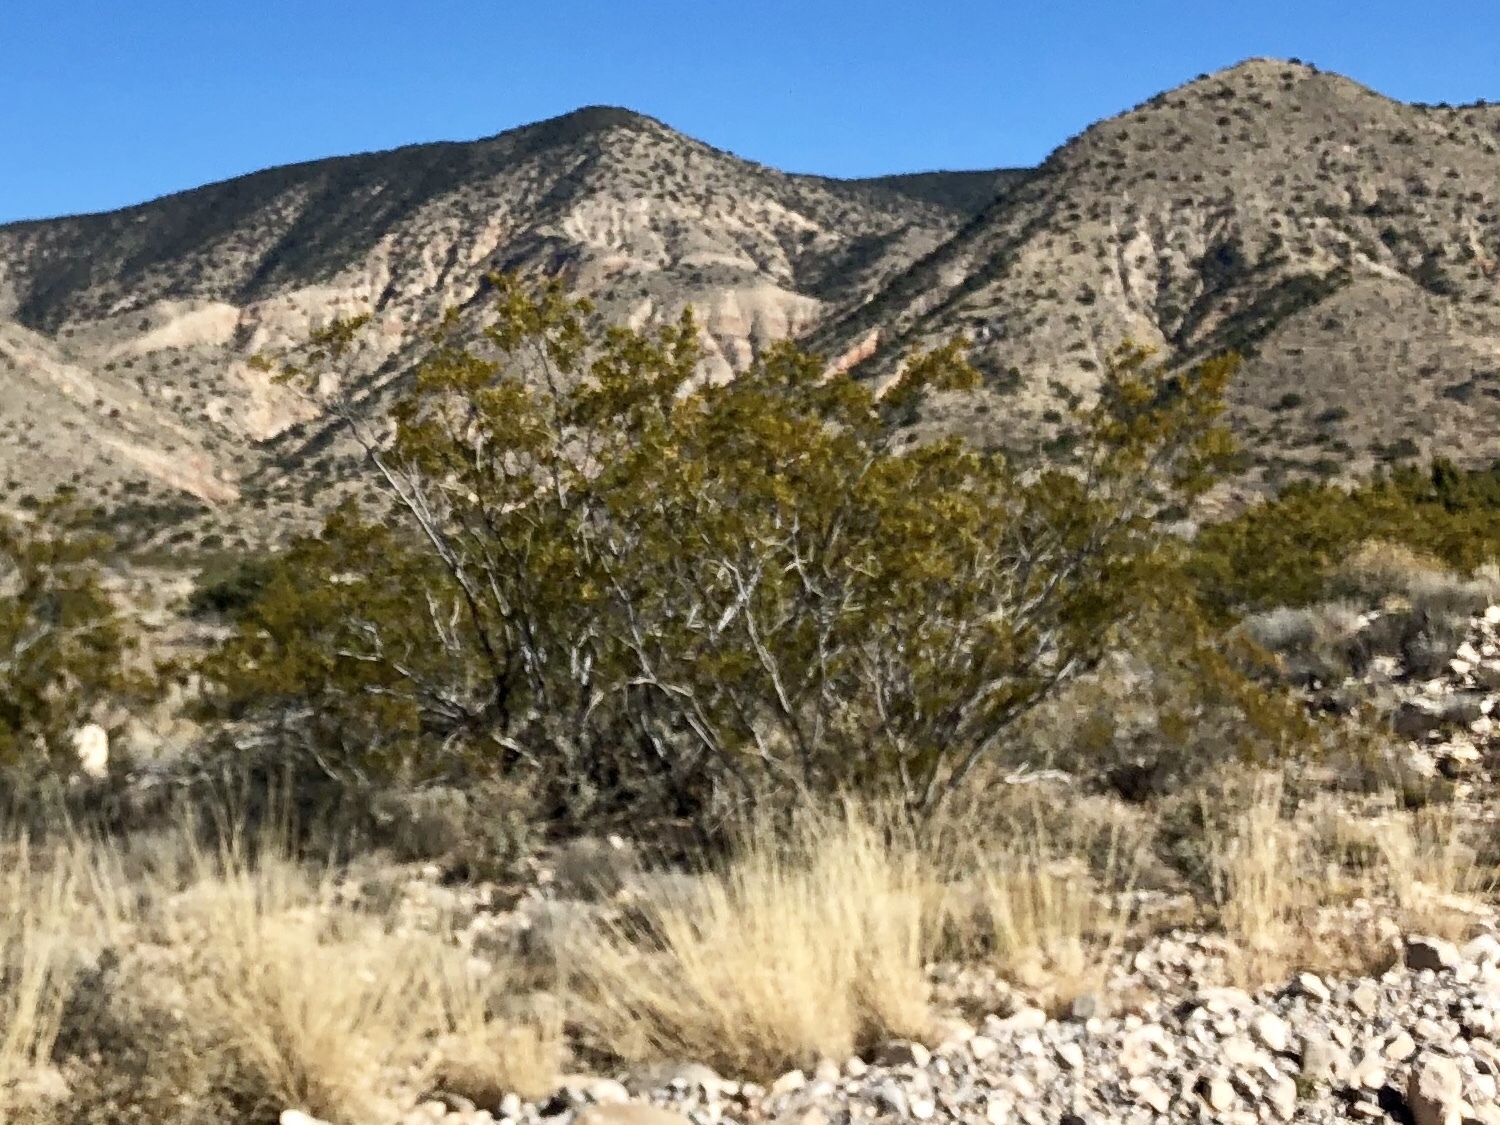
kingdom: Plantae
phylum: Tracheophyta
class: Magnoliopsida
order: Zygophyllales
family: Zygophyllaceae
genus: Larrea
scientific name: Larrea tridentata
